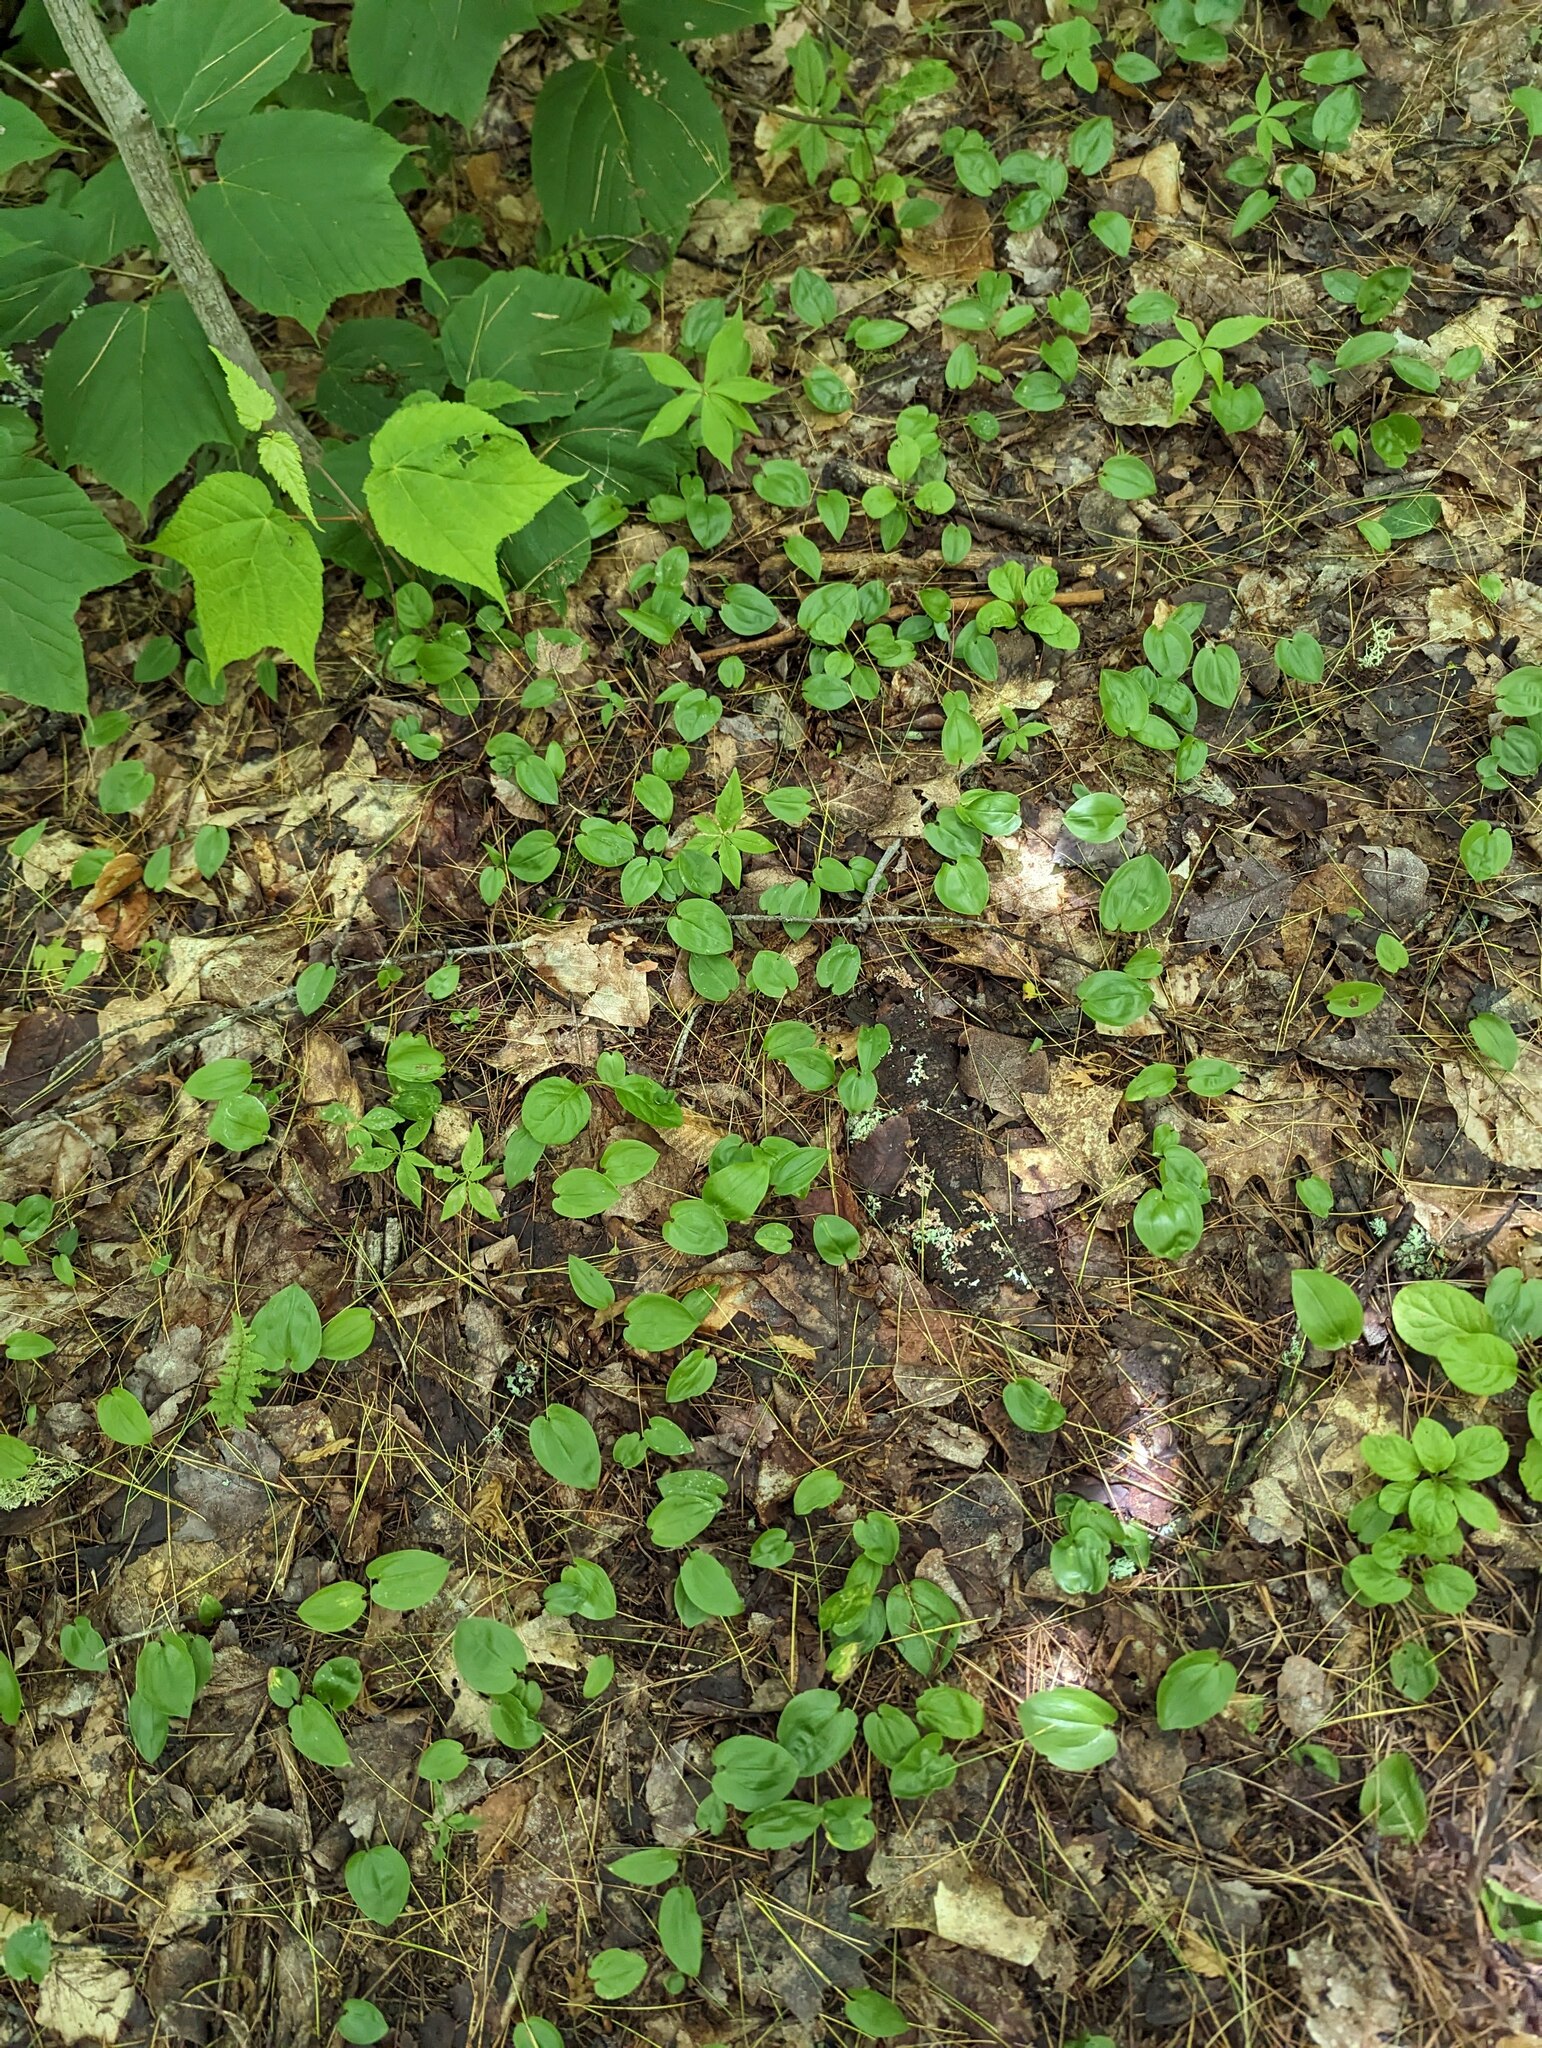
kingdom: Plantae
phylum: Tracheophyta
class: Liliopsida
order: Asparagales
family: Asparagaceae
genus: Maianthemum
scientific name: Maianthemum canadense
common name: False lily-of-the-valley
